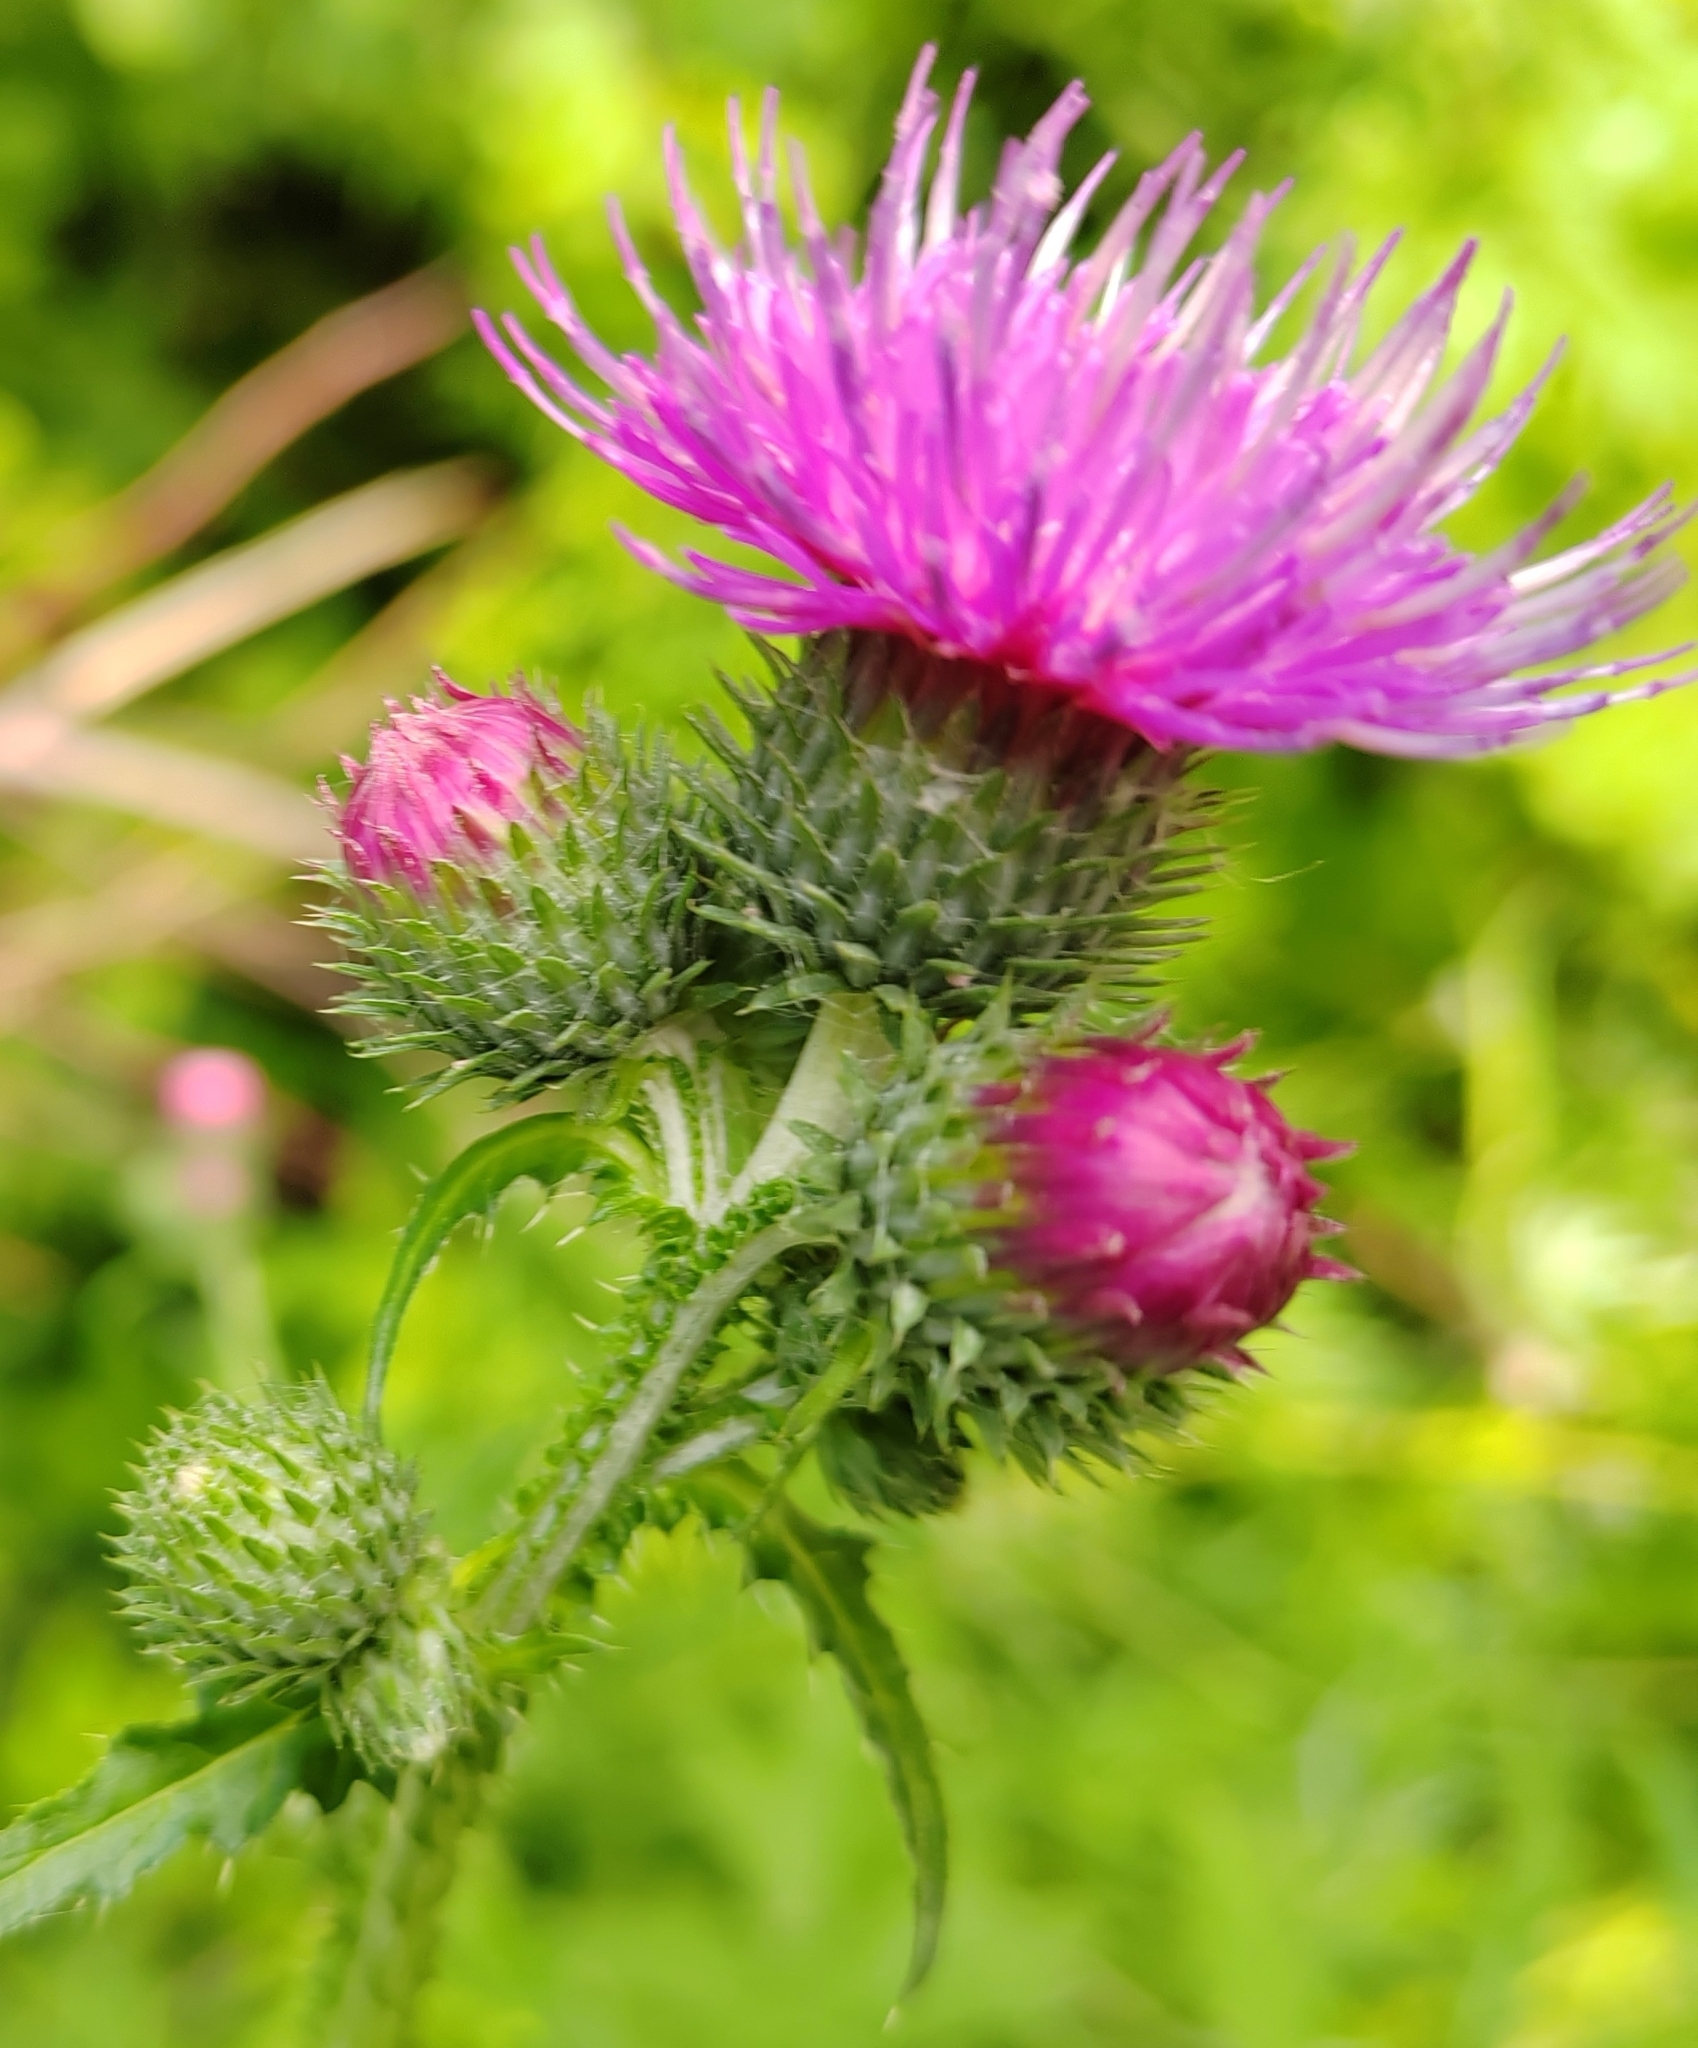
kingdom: Plantae
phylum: Tracheophyta
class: Magnoliopsida
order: Asterales
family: Asteraceae
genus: Carduus
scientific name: Carduus crispus
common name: Welted thistle
